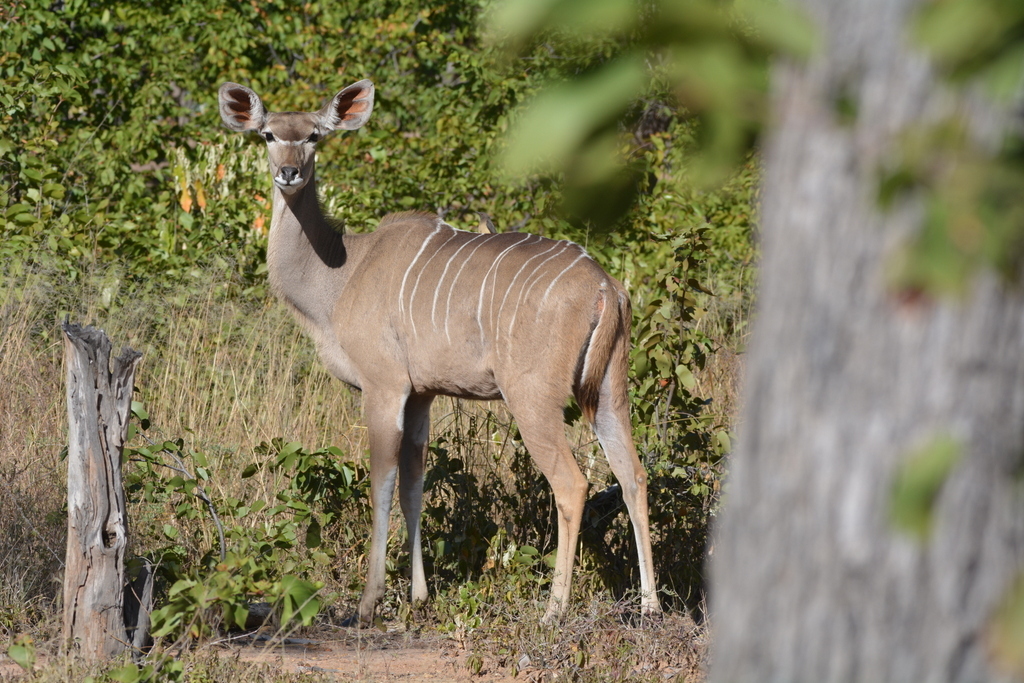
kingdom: Animalia
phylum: Chordata
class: Mammalia
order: Artiodactyla
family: Bovidae
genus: Tragelaphus
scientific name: Tragelaphus strepsiceros
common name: Greater kudu
